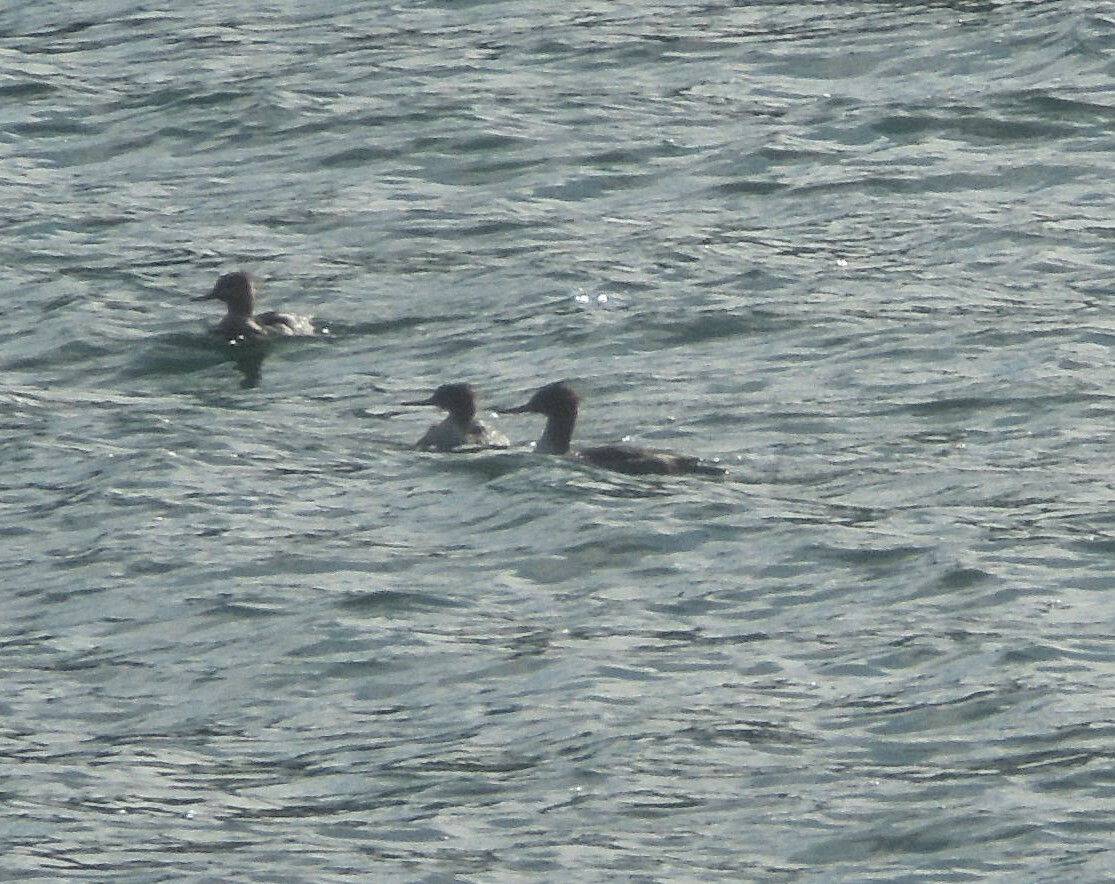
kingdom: Animalia
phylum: Chordata
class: Aves
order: Anseriformes
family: Anatidae
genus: Mergus
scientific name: Mergus serrator
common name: Red-breasted merganser
